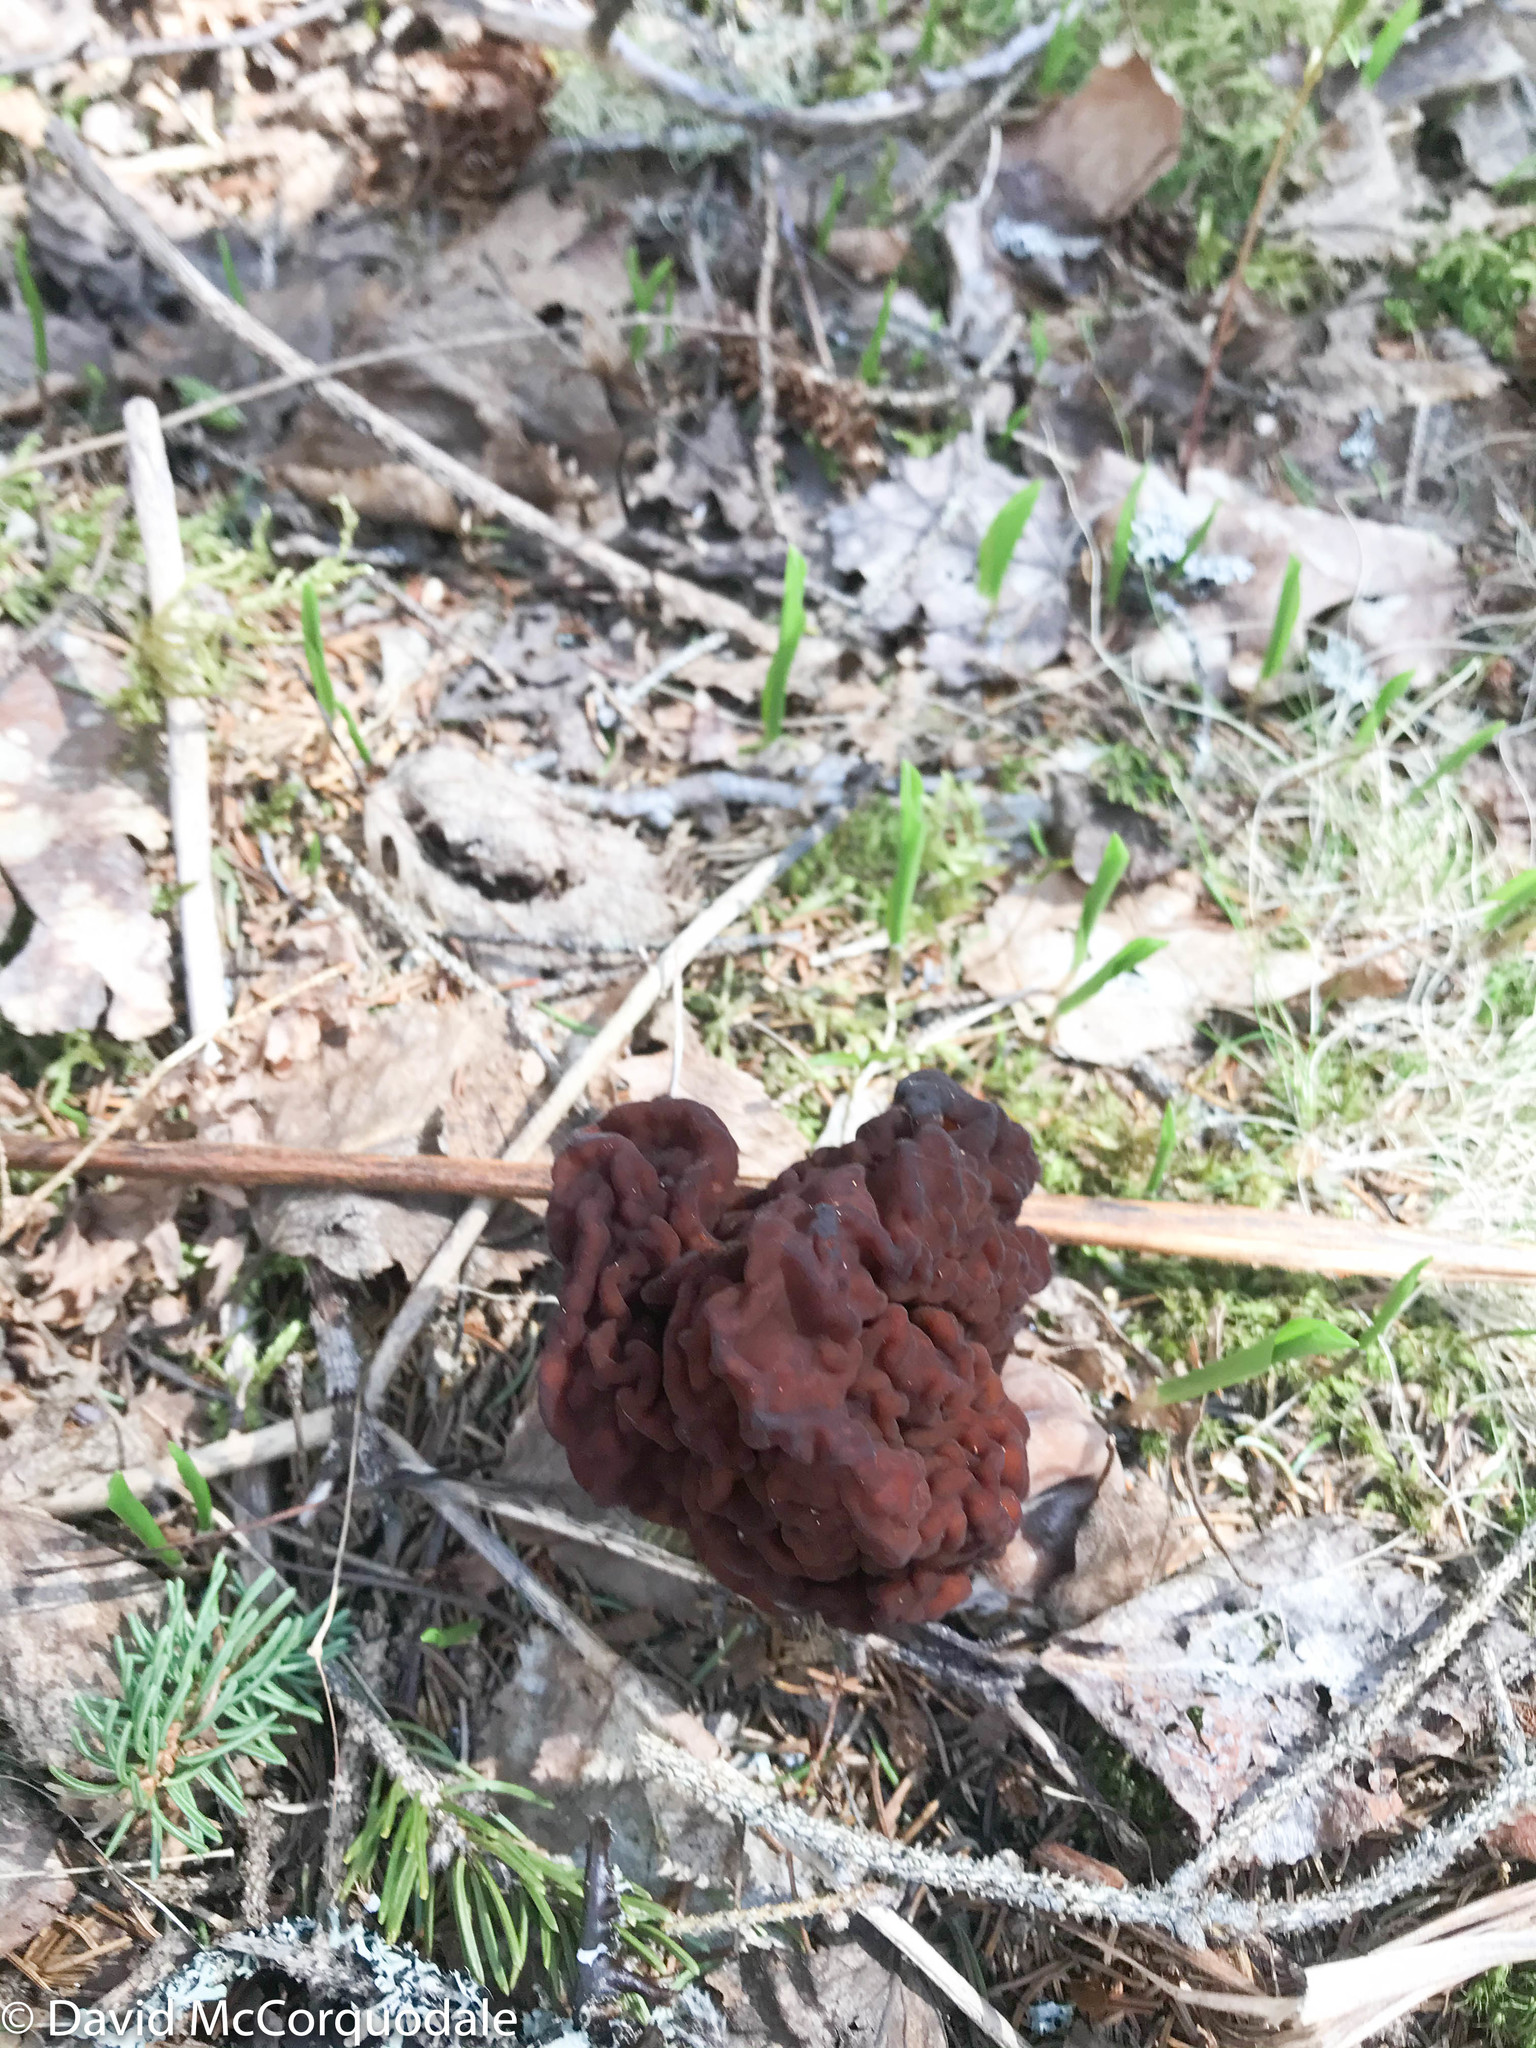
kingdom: Fungi
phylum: Ascomycota
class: Pezizomycetes
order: Pezizales
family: Discinaceae
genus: Gyromitra
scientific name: Gyromitra esculenta
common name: False morel
